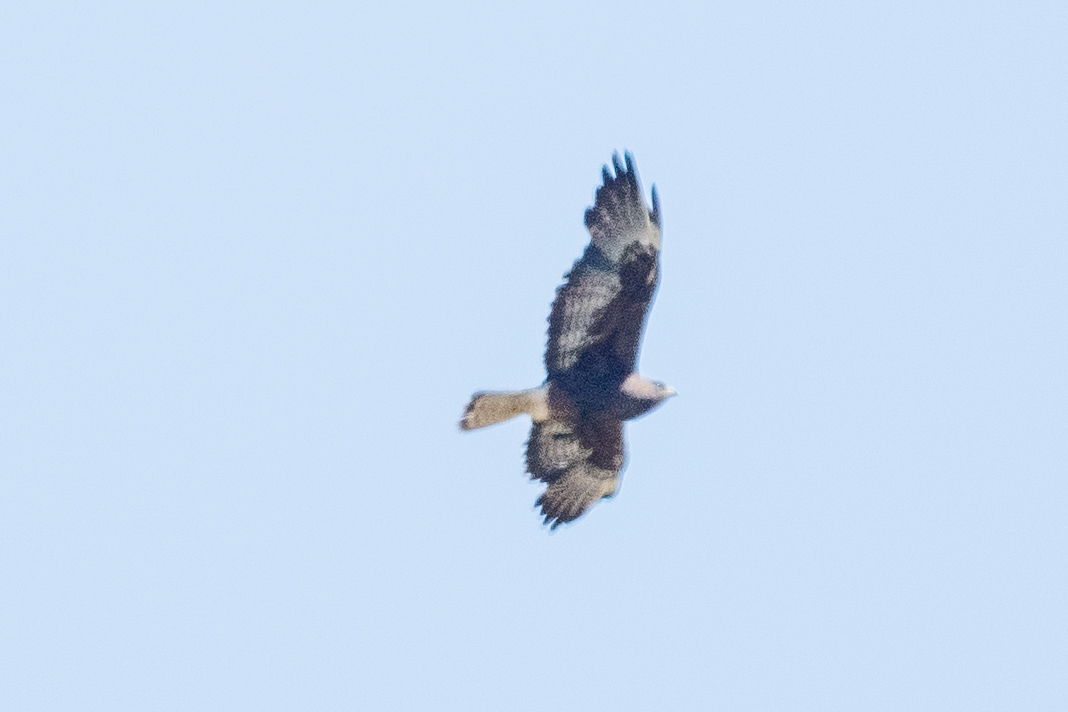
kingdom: Animalia
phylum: Chordata
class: Aves
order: Accipitriformes
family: Accipitridae
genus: Buteo
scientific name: Buteo jamaicensis
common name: Red-tailed hawk
